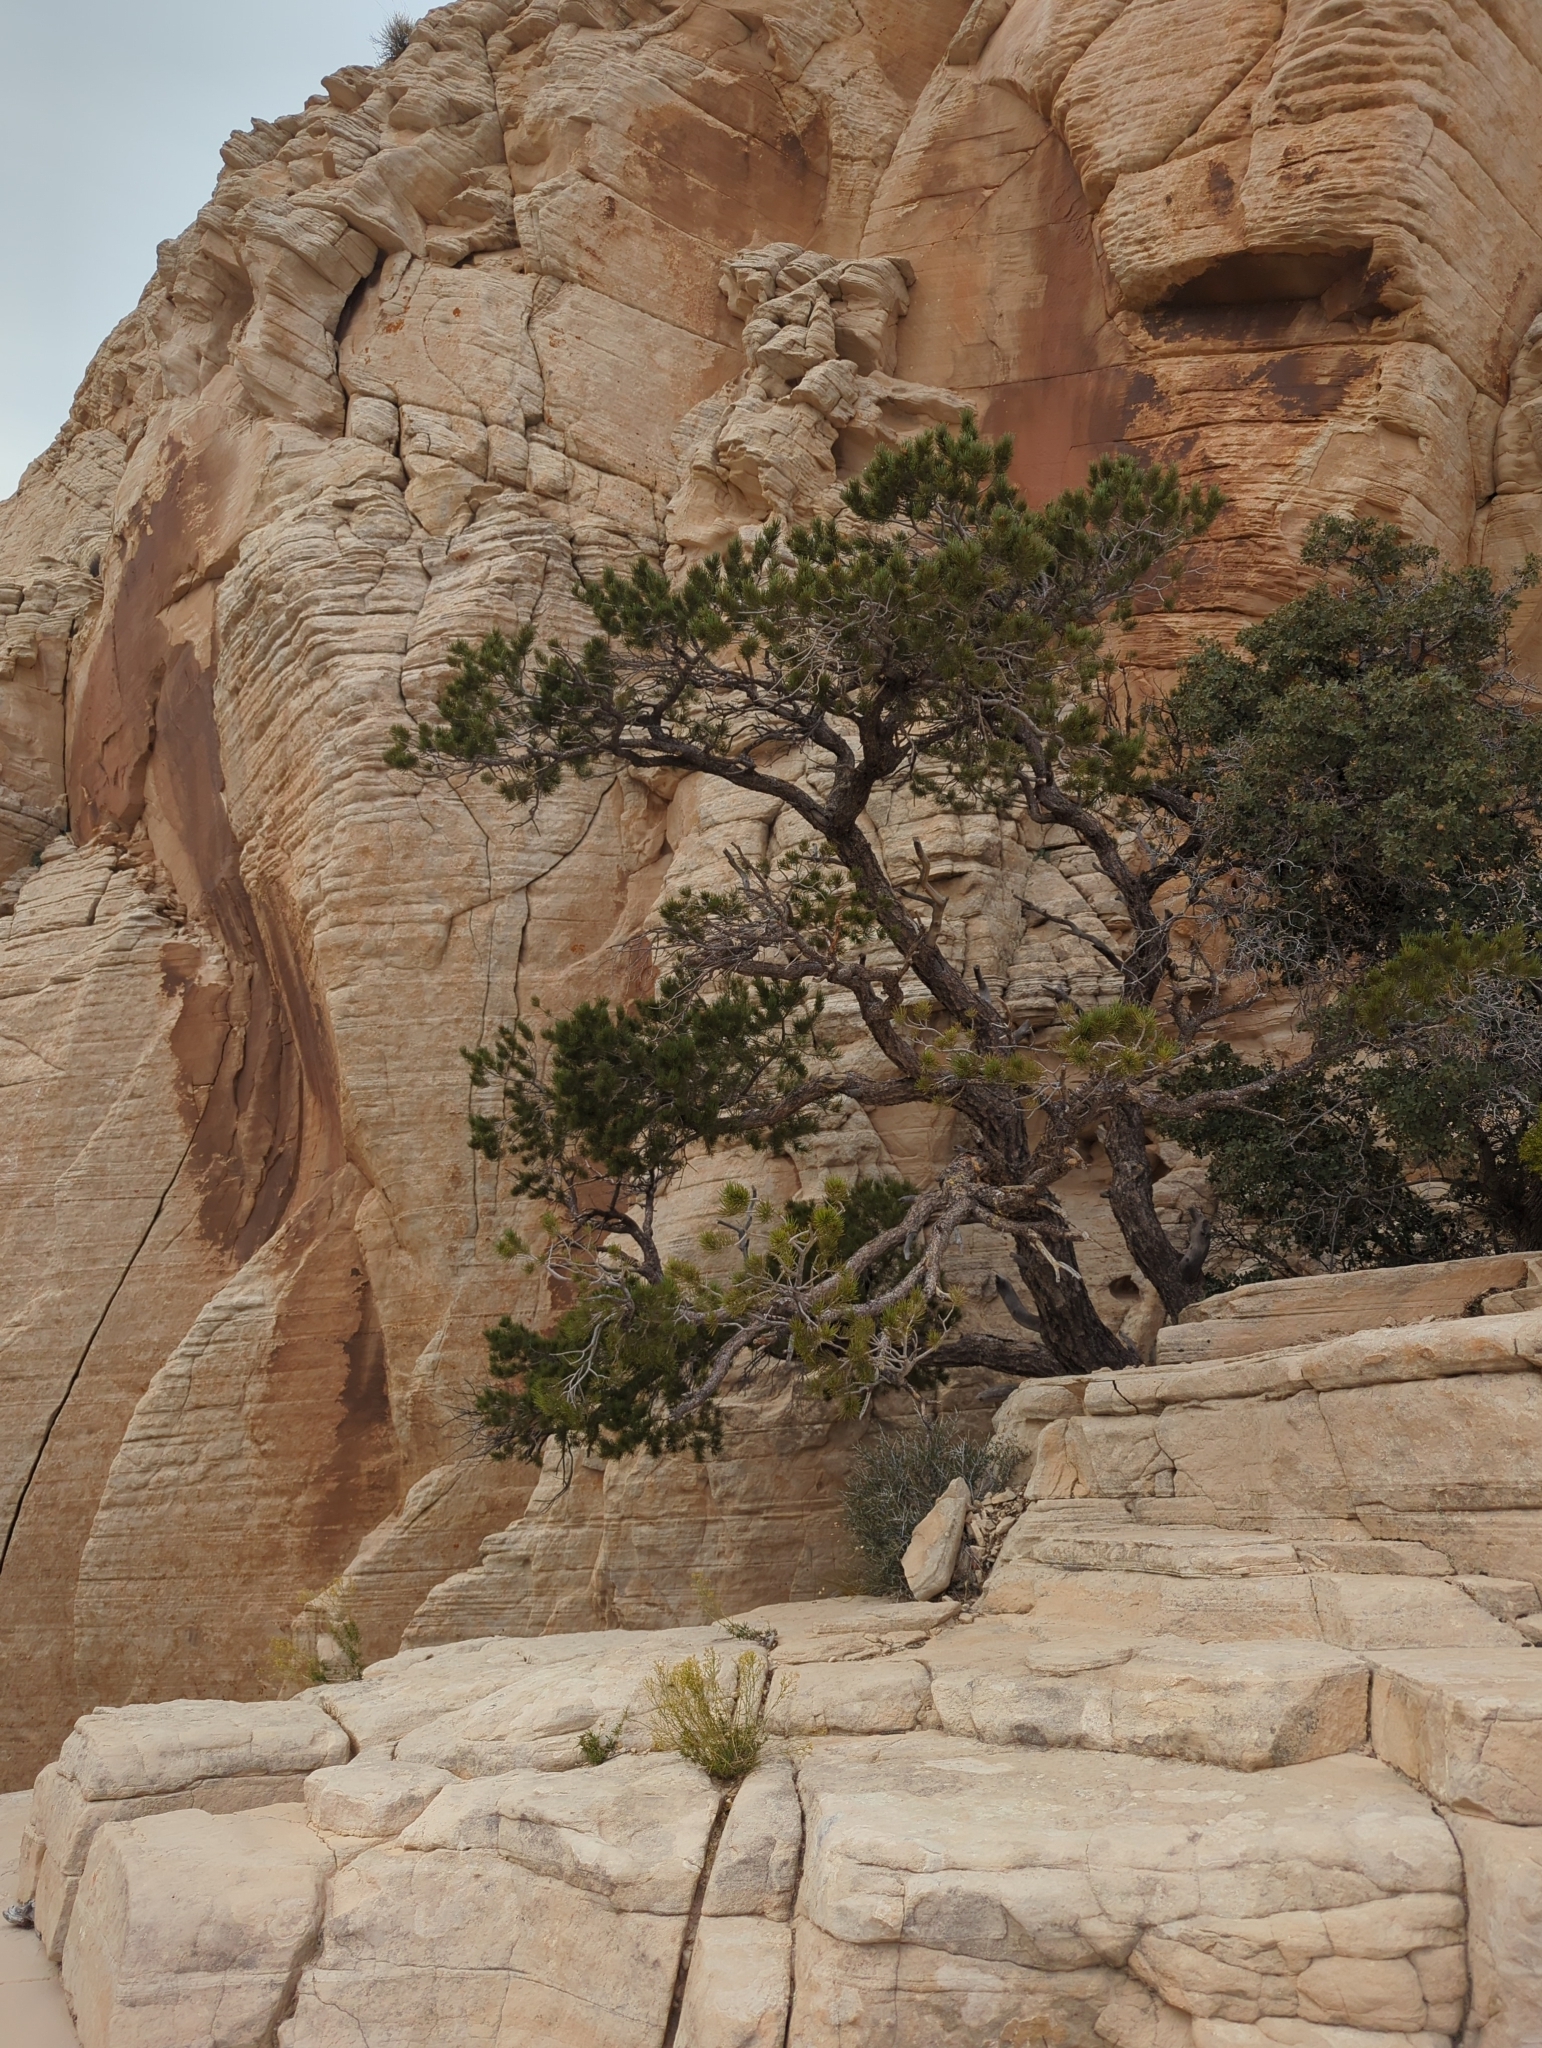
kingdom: Plantae
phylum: Tracheophyta
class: Pinopsida
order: Pinales
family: Pinaceae
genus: Pinus
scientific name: Pinus monophylla
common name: One-leaved nut pine
